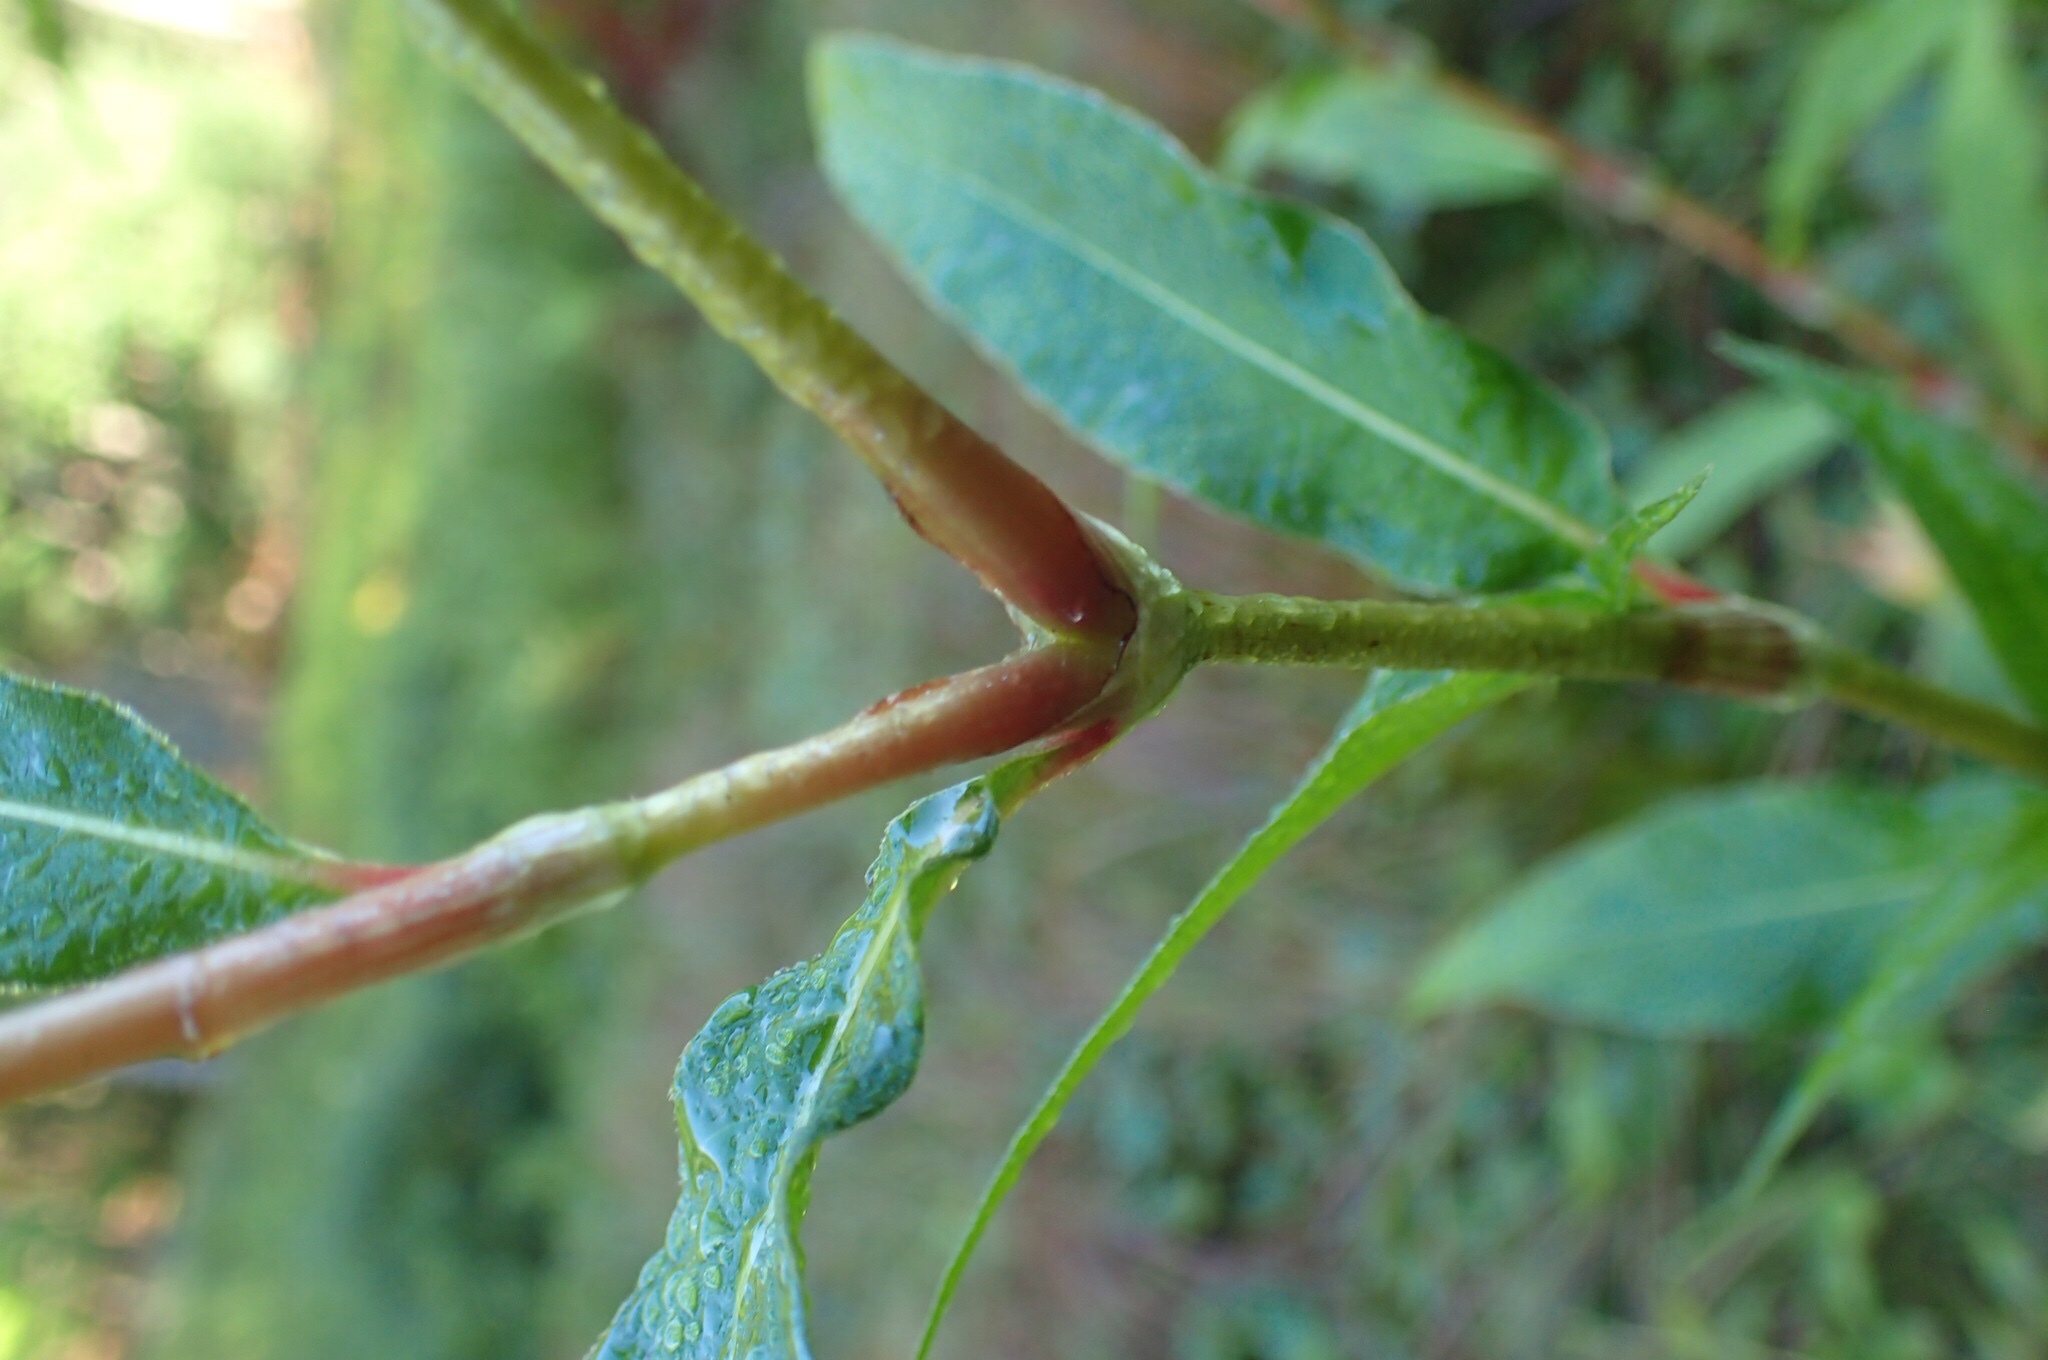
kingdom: Plantae
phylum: Tracheophyta
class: Magnoliopsida
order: Caryophyllales
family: Polygonaceae
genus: Persicaria
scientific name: Persicaria lapathifolia
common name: Curlytop knotweed
